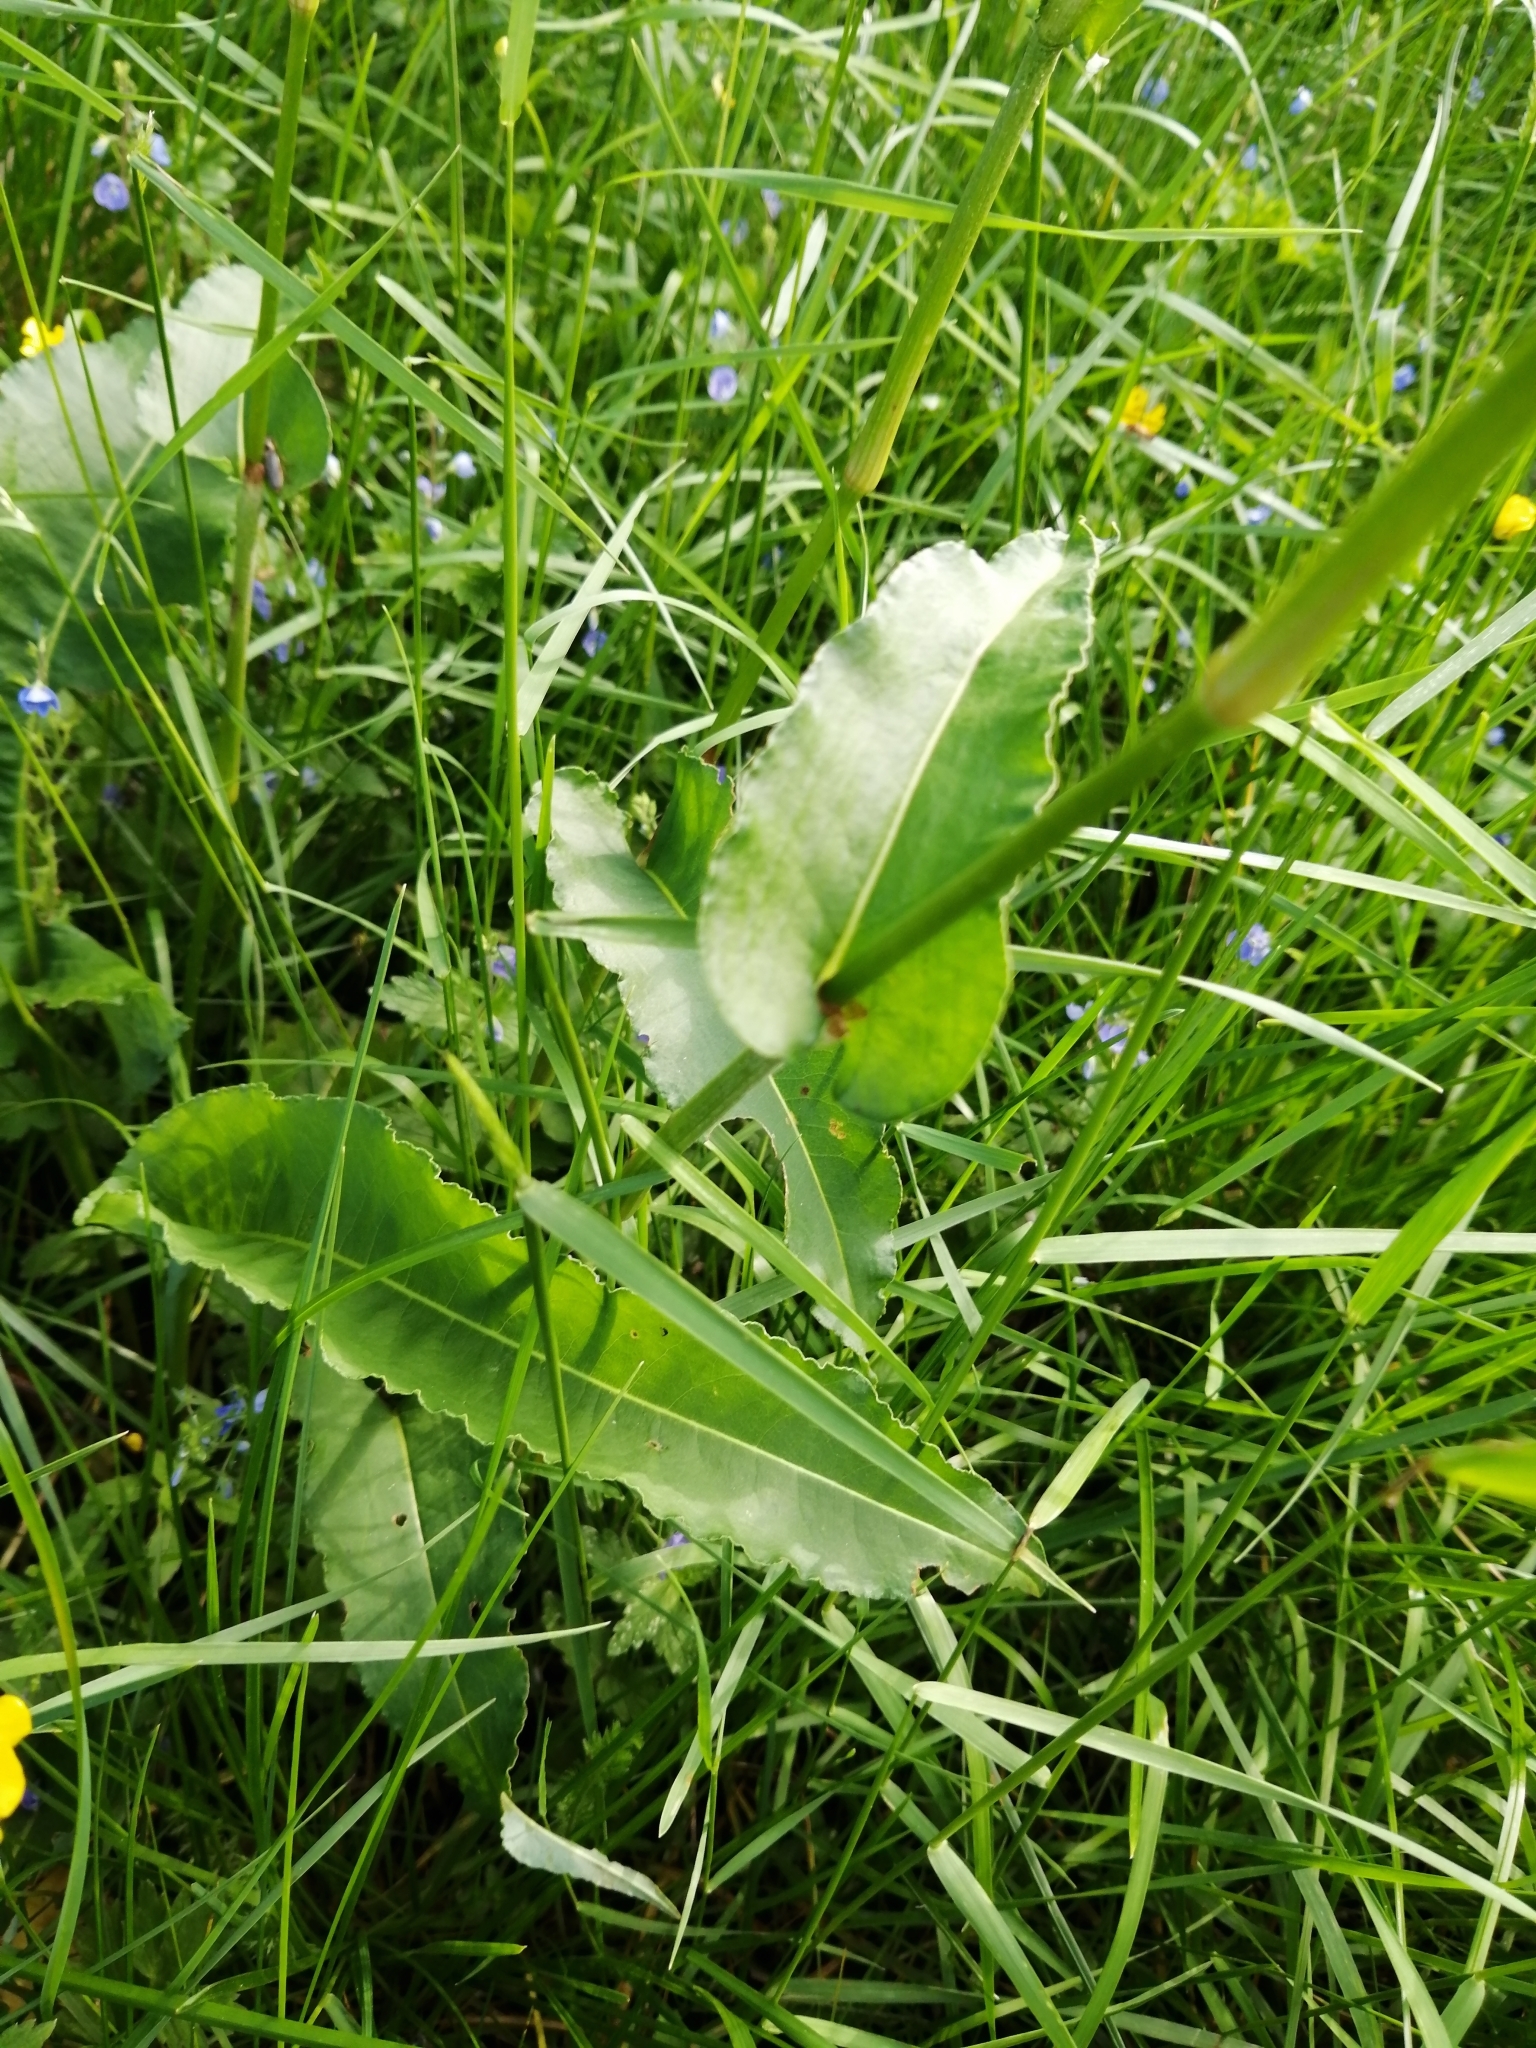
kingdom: Plantae
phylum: Tracheophyta
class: Magnoliopsida
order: Caryophyllales
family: Polygonaceae
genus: Bistorta
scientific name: Bistorta officinalis
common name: Common bistort
